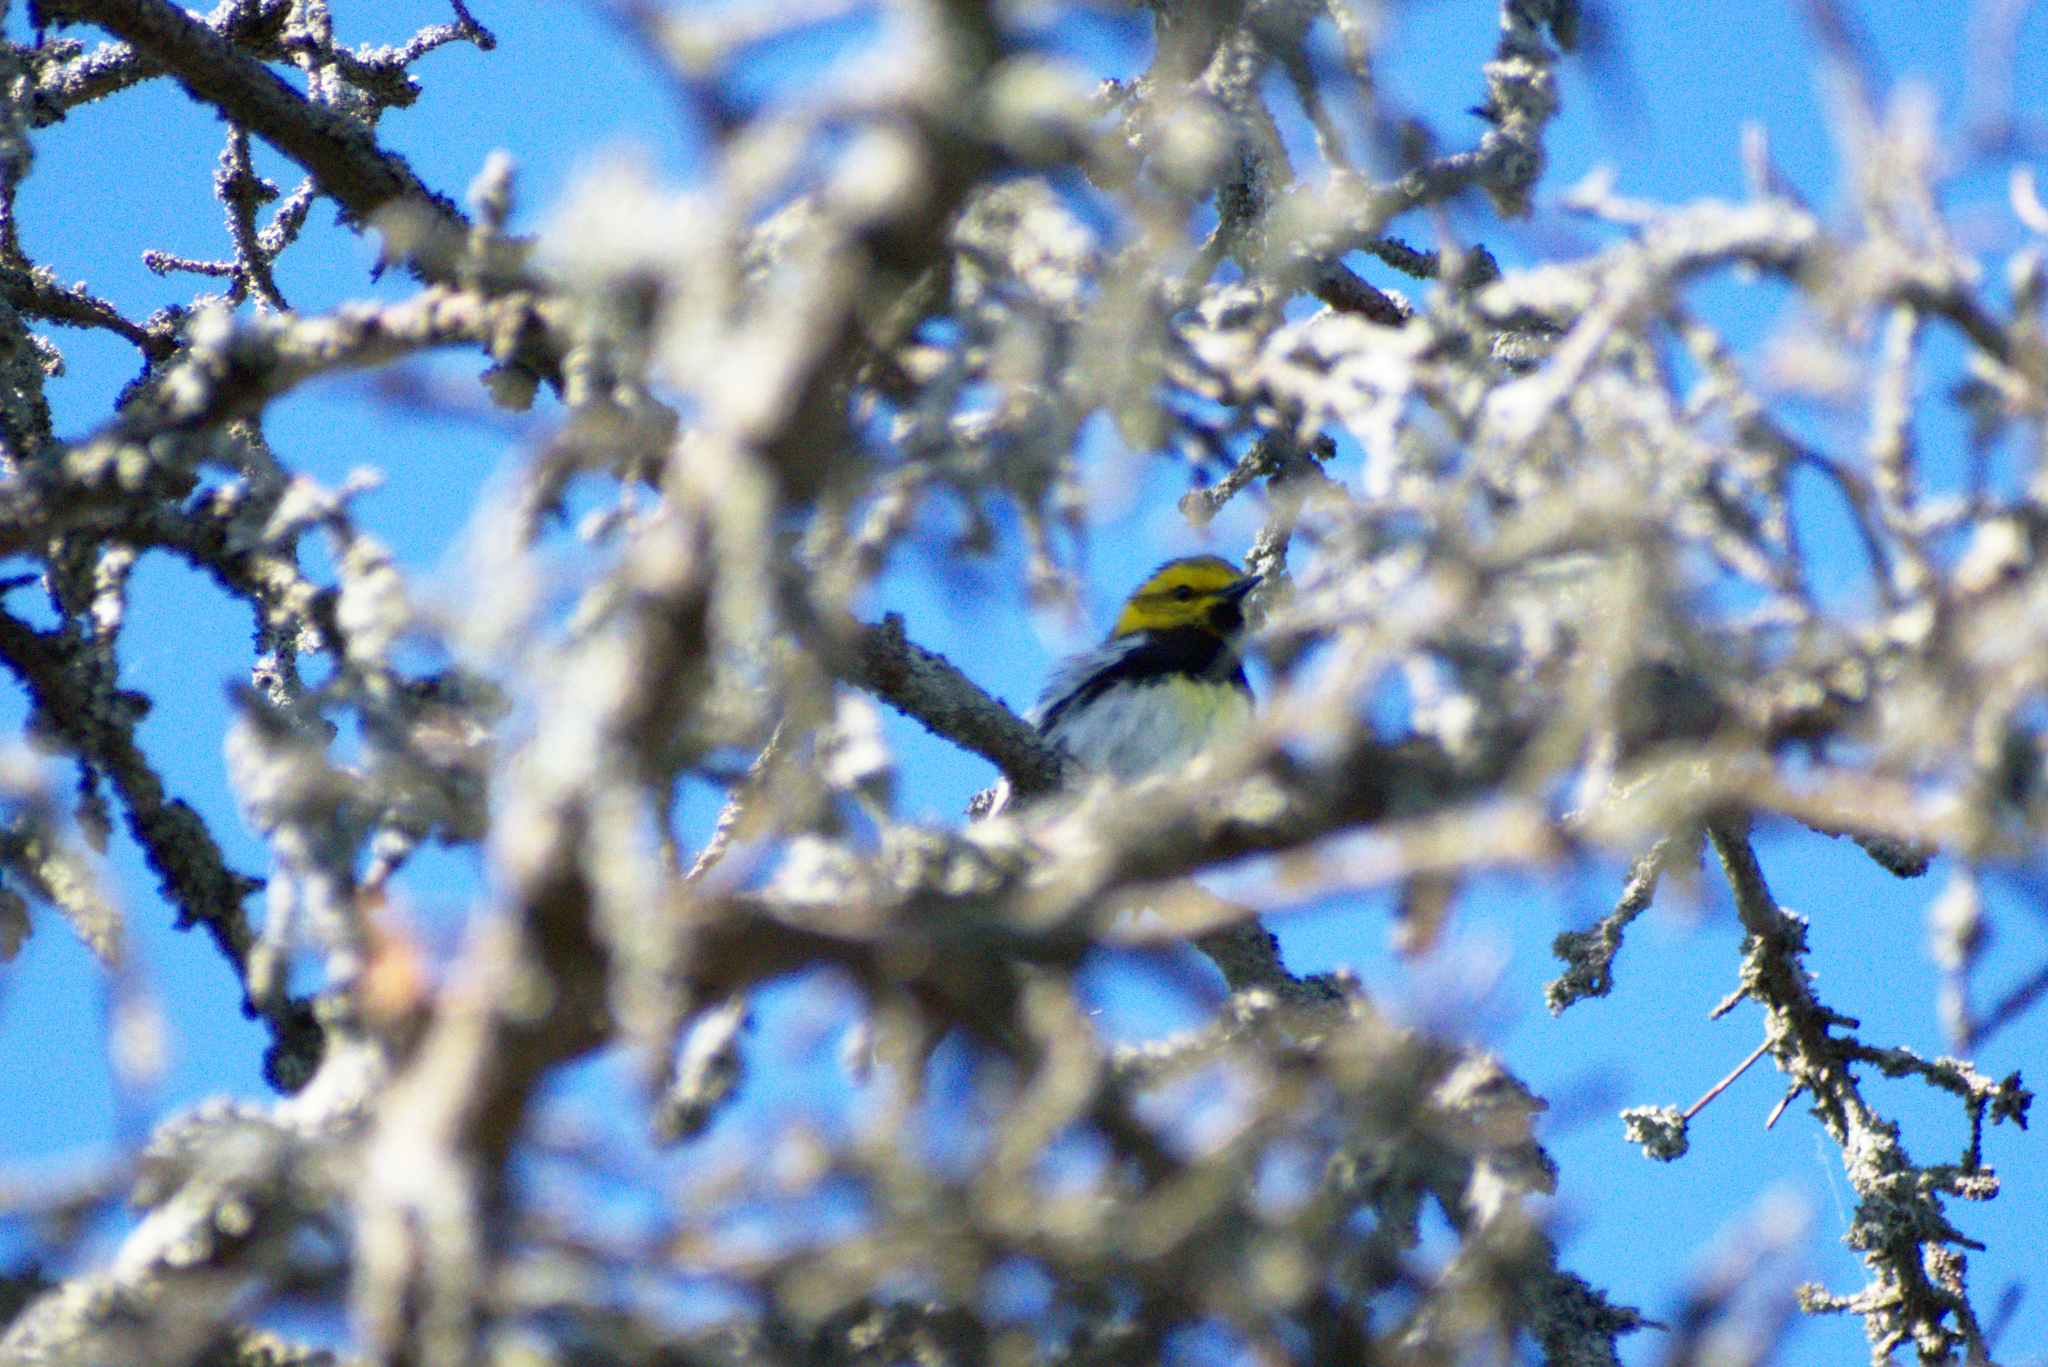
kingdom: Animalia
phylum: Chordata
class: Aves
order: Passeriformes
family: Parulidae
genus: Setophaga
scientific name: Setophaga virens
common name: Black-throated green warbler
